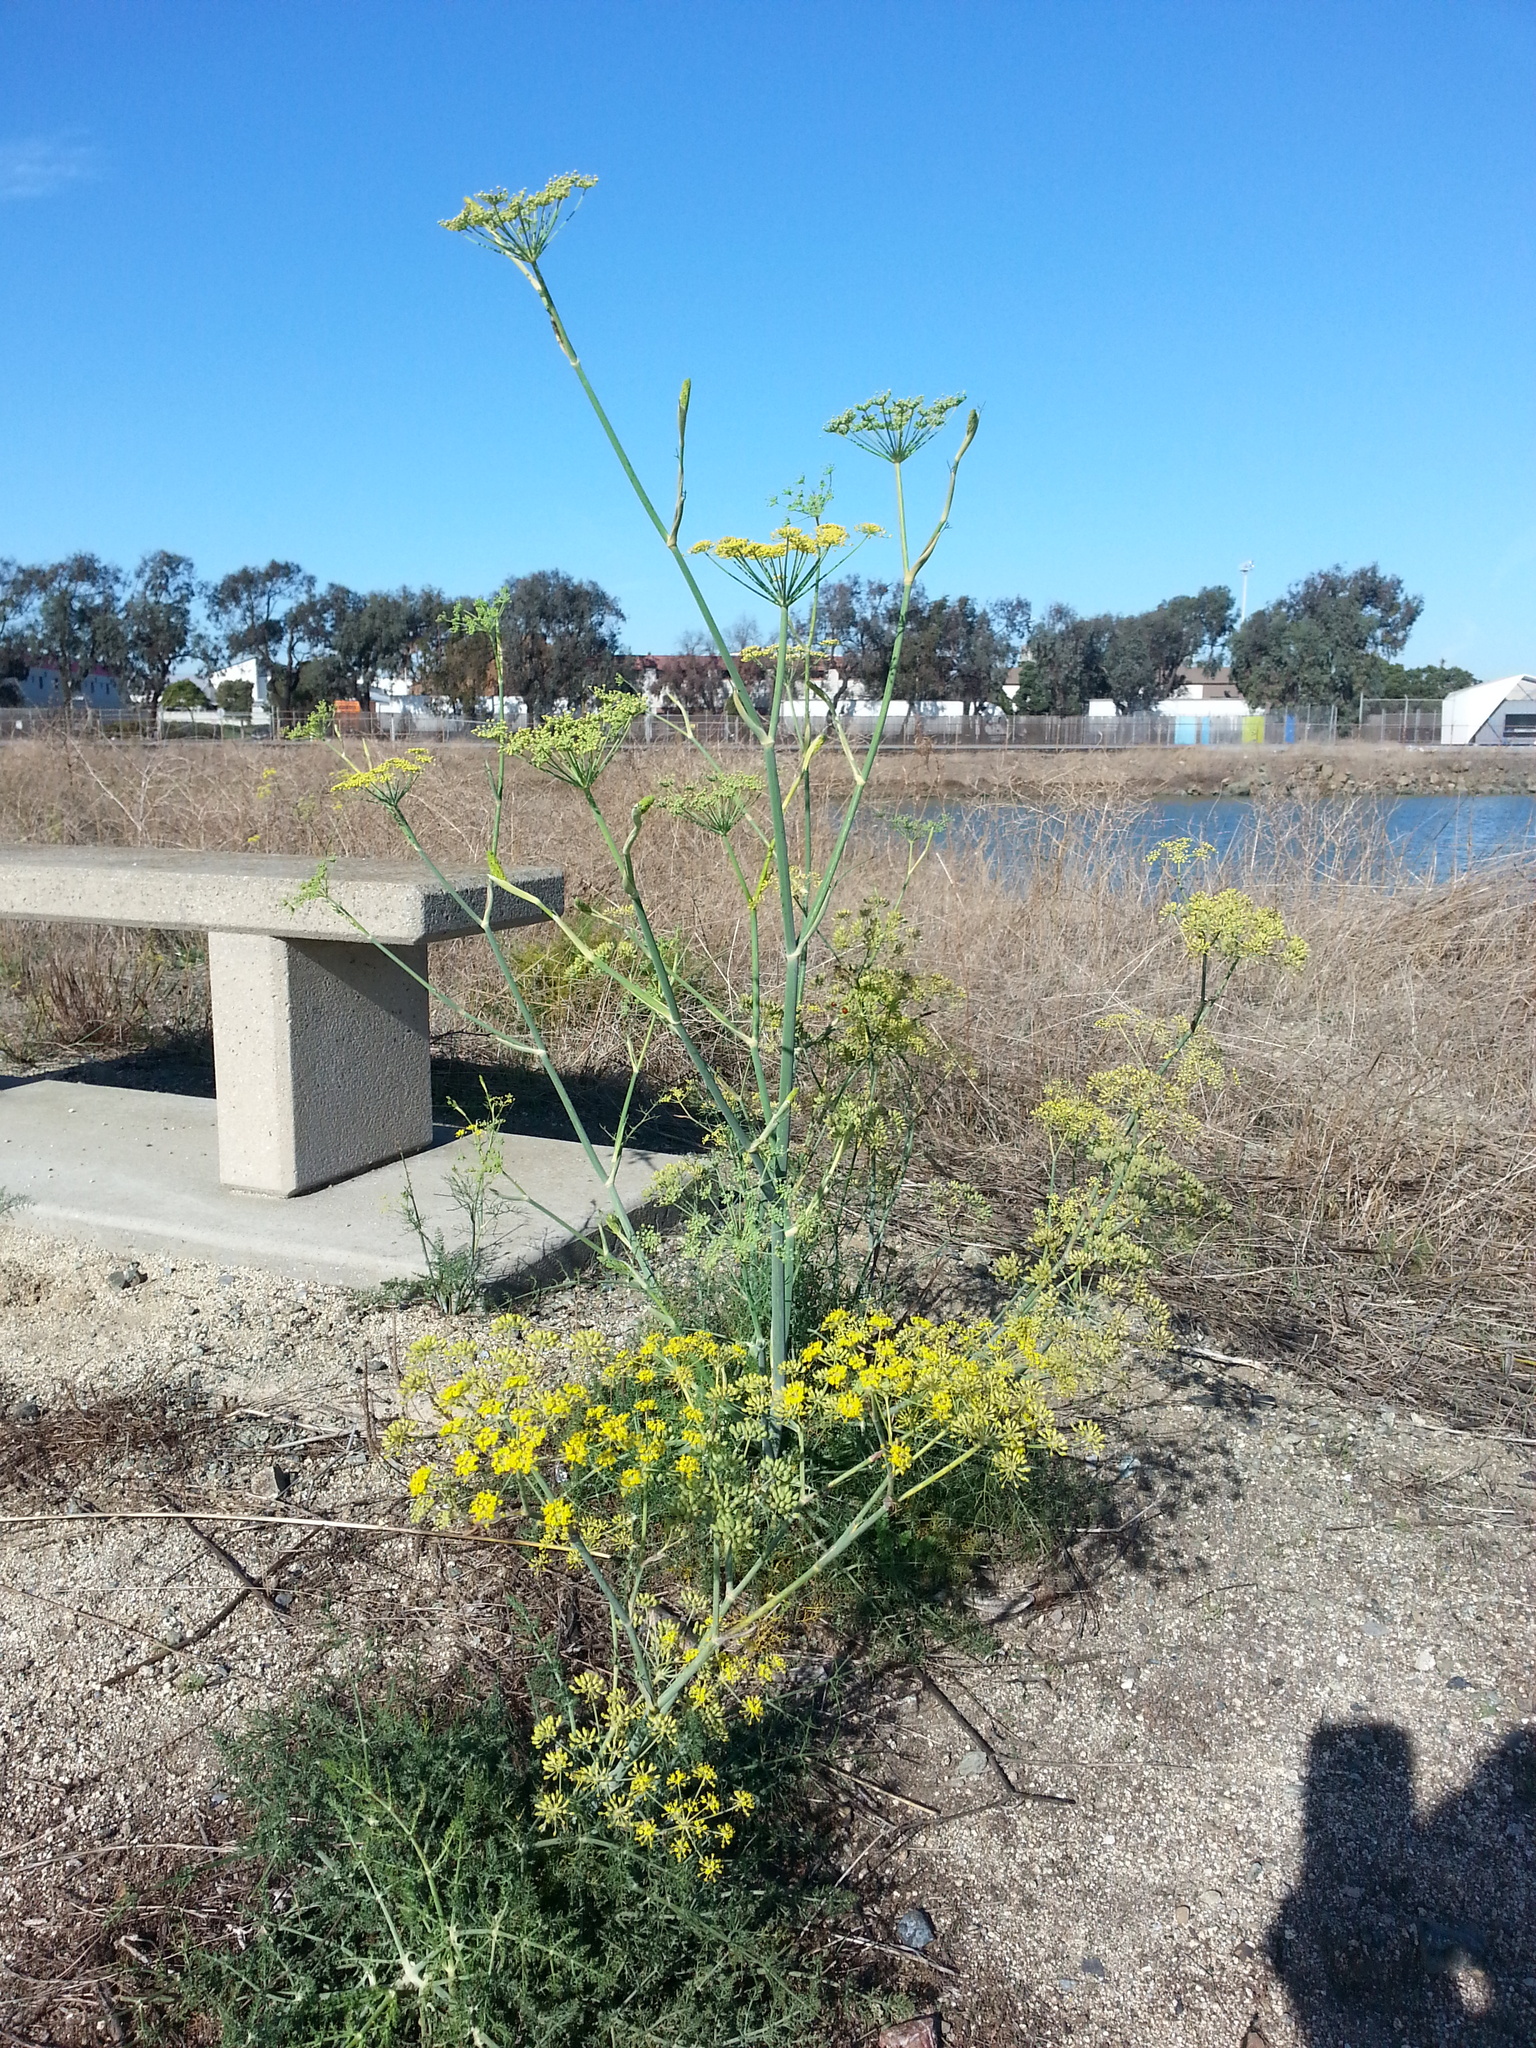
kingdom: Plantae
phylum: Tracheophyta
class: Magnoliopsida
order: Apiales
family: Apiaceae
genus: Foeniculum
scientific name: Foeniculum vulgare
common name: Fennel
